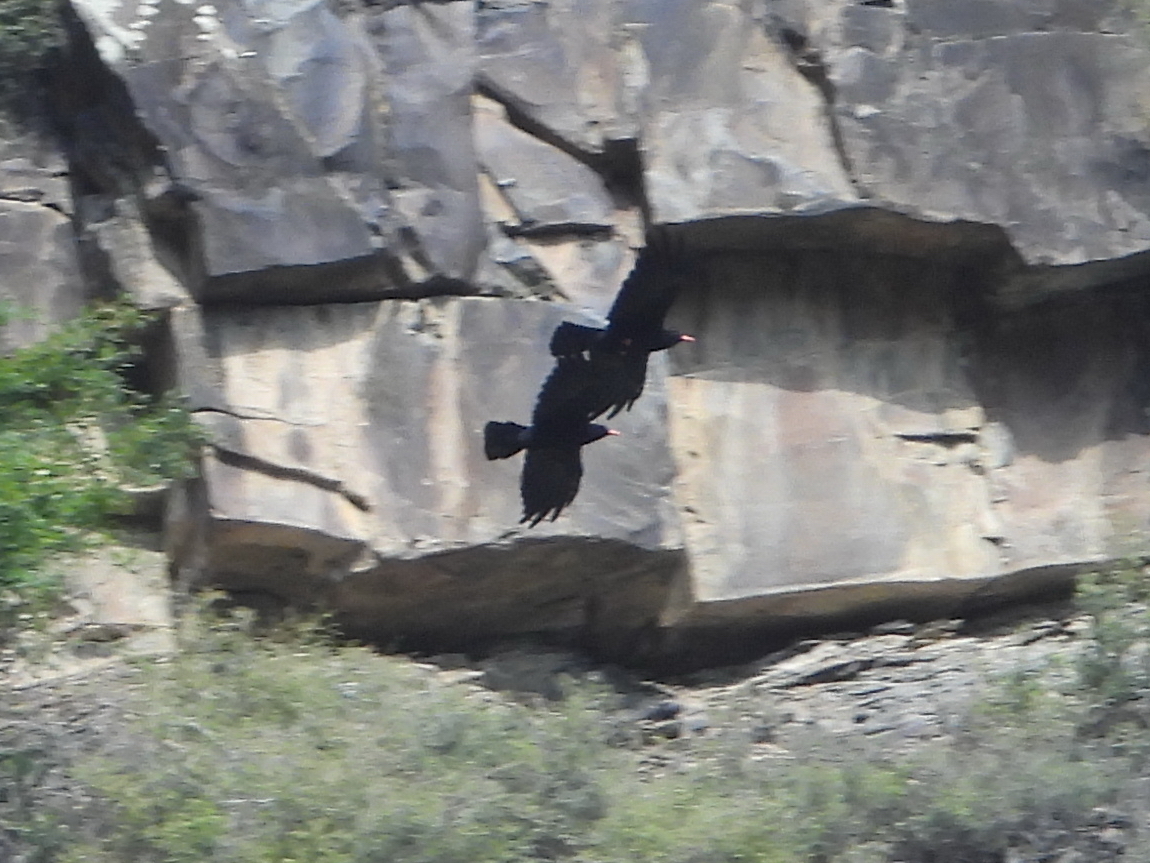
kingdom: Animalia
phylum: Chordata
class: Aves
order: Passeriformes
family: Corvidae
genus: Pyrrhocorax
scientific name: Pyrrhocorax pyrrhocorax
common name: Red-billed chough
